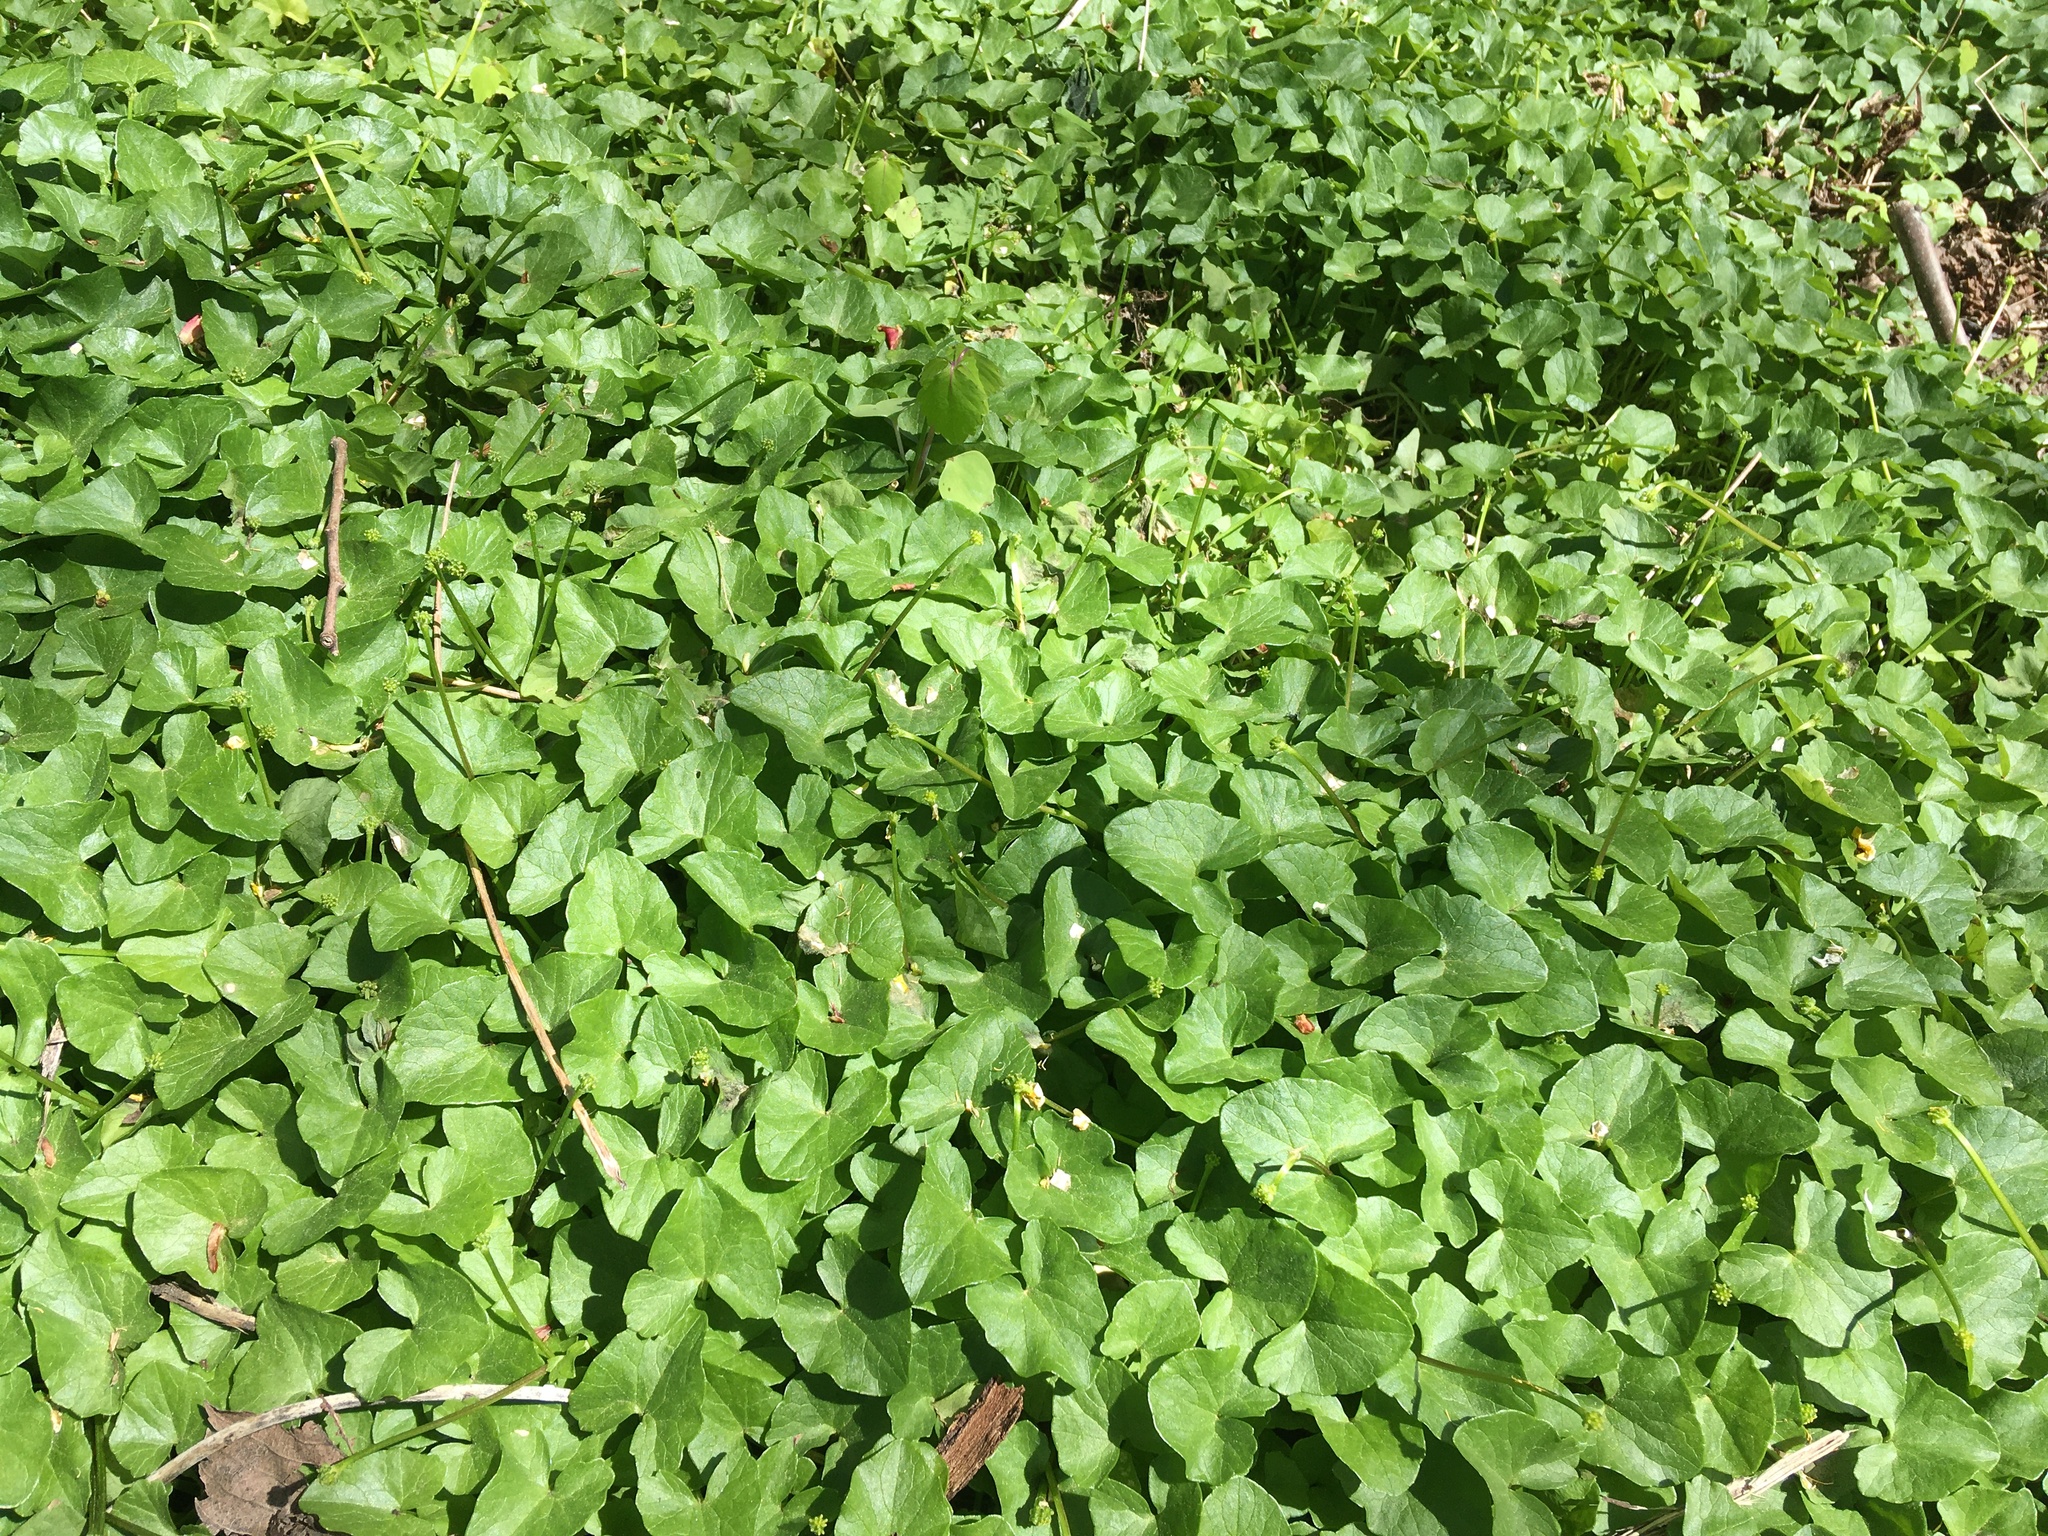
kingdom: Plantae
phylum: Tracheophyta
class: Magnoliopsida
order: Ranunculales
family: Ranunculaceae
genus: Ficaria
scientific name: Ficaria verna
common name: Lesser celandine
